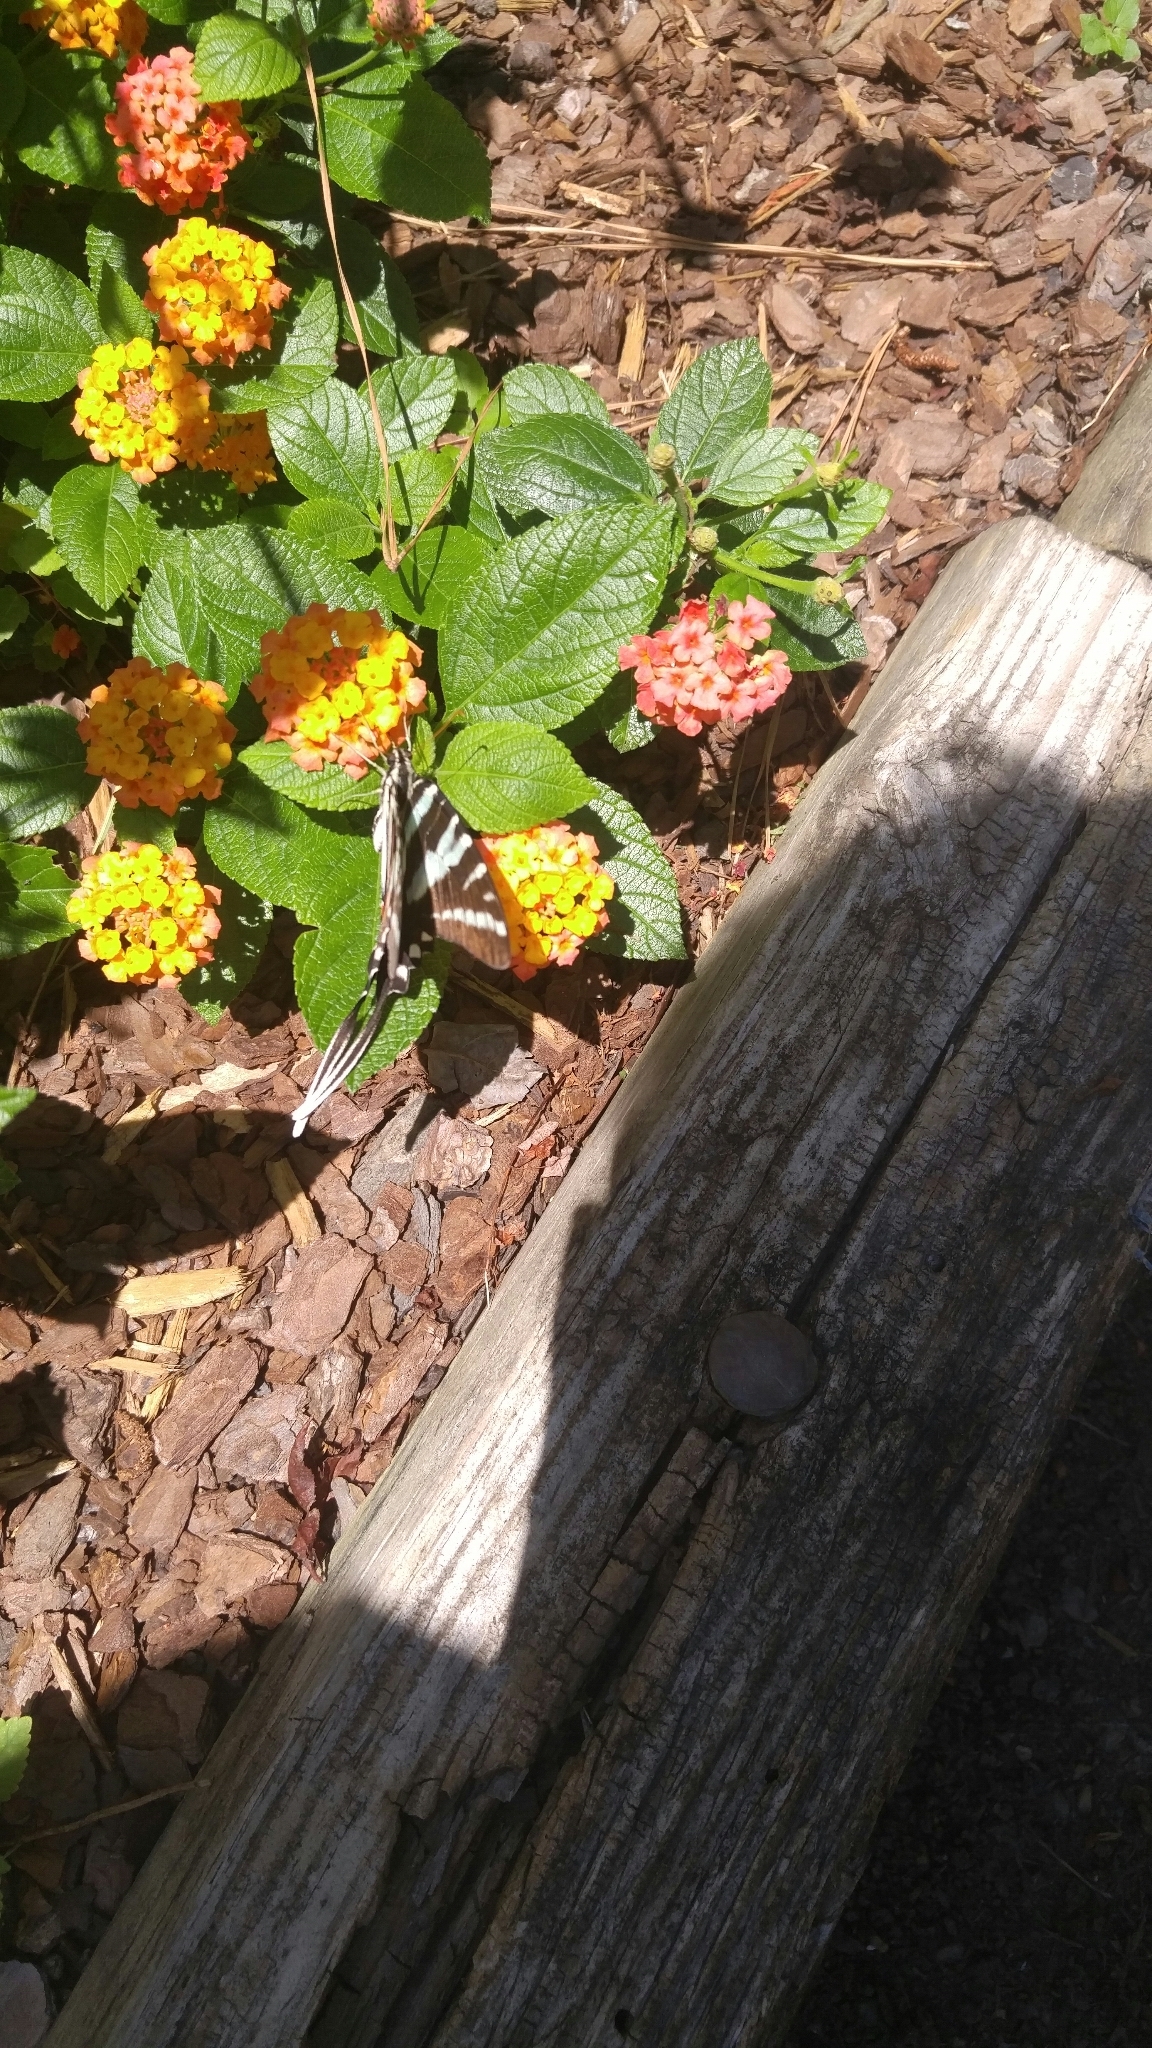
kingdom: Animalia
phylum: Arthropoda
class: Insecta
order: Lepidoptera
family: Papilionidae
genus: Protographium
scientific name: Protographium marcellus
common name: Zebra swallowtail
